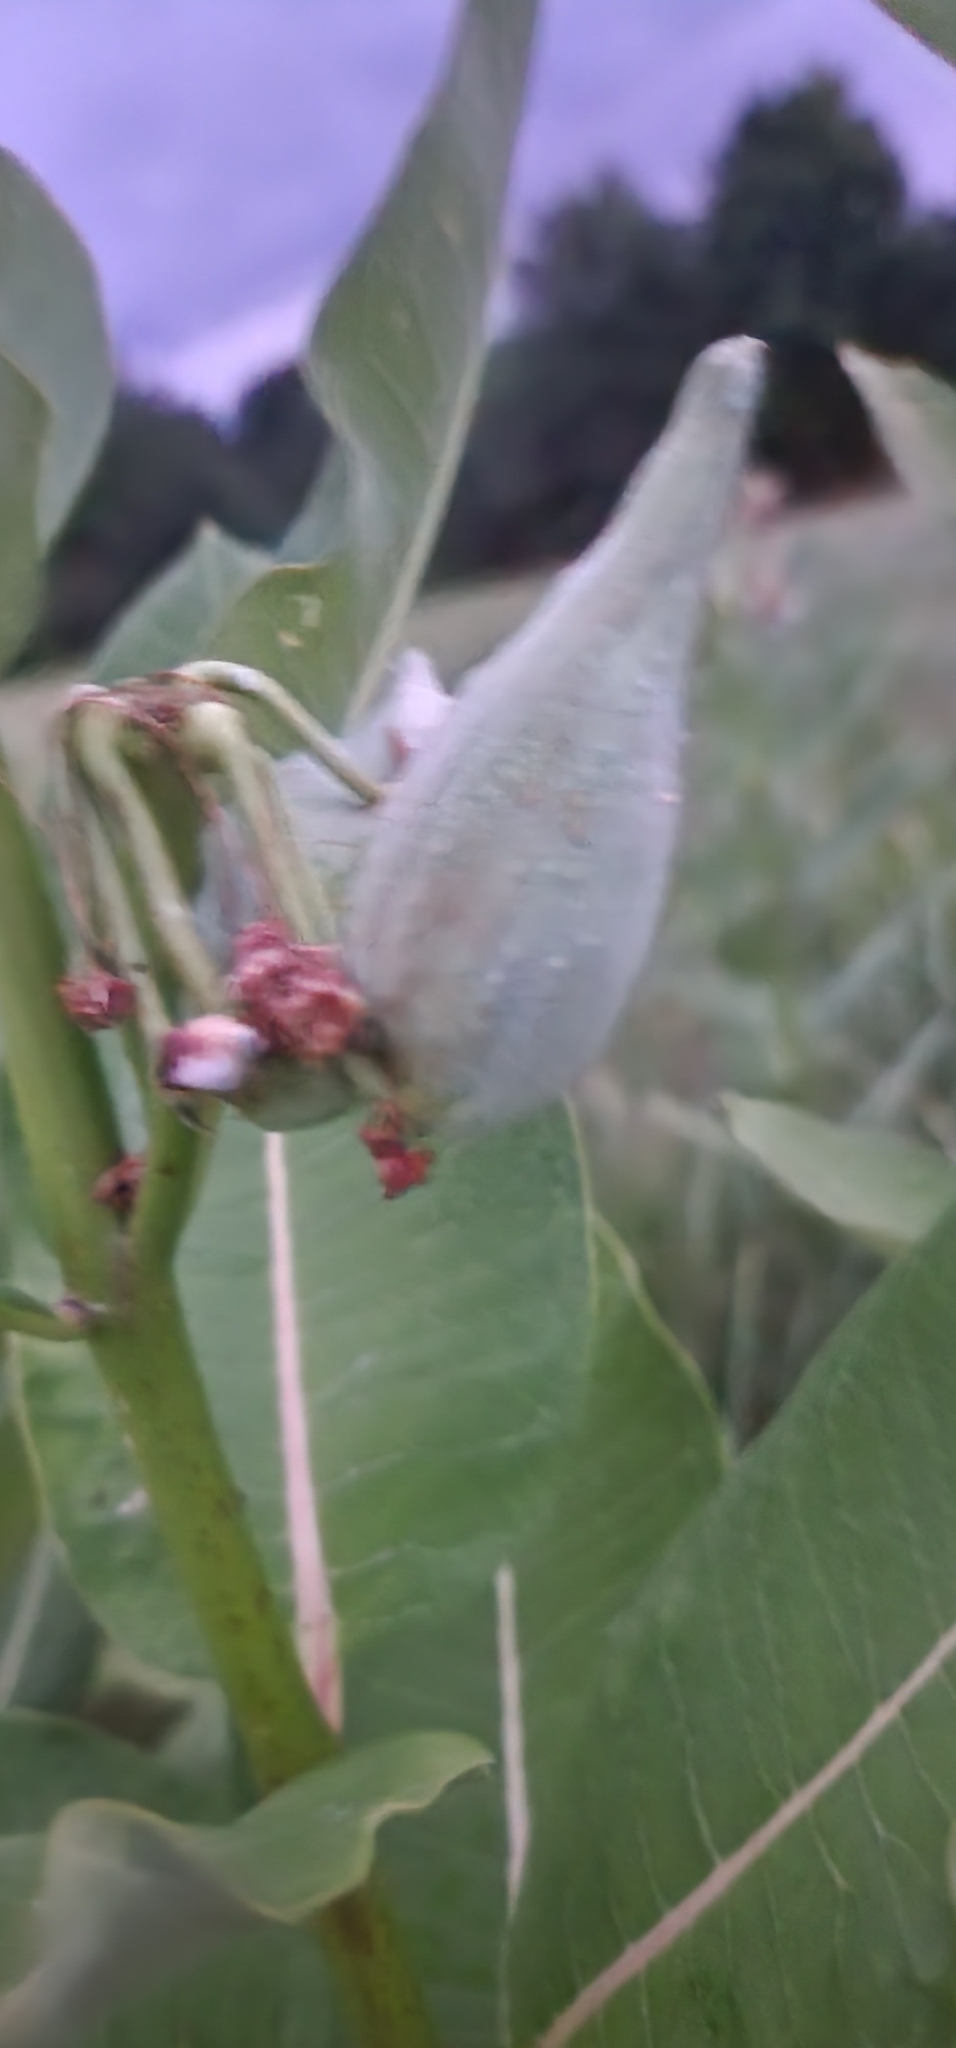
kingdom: Plantae
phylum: Tracheophyta
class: Magnoliopsida
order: Gentianales
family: Apocynaceae
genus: Asclepias
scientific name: Asclepias syriaca
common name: Common milkweed
